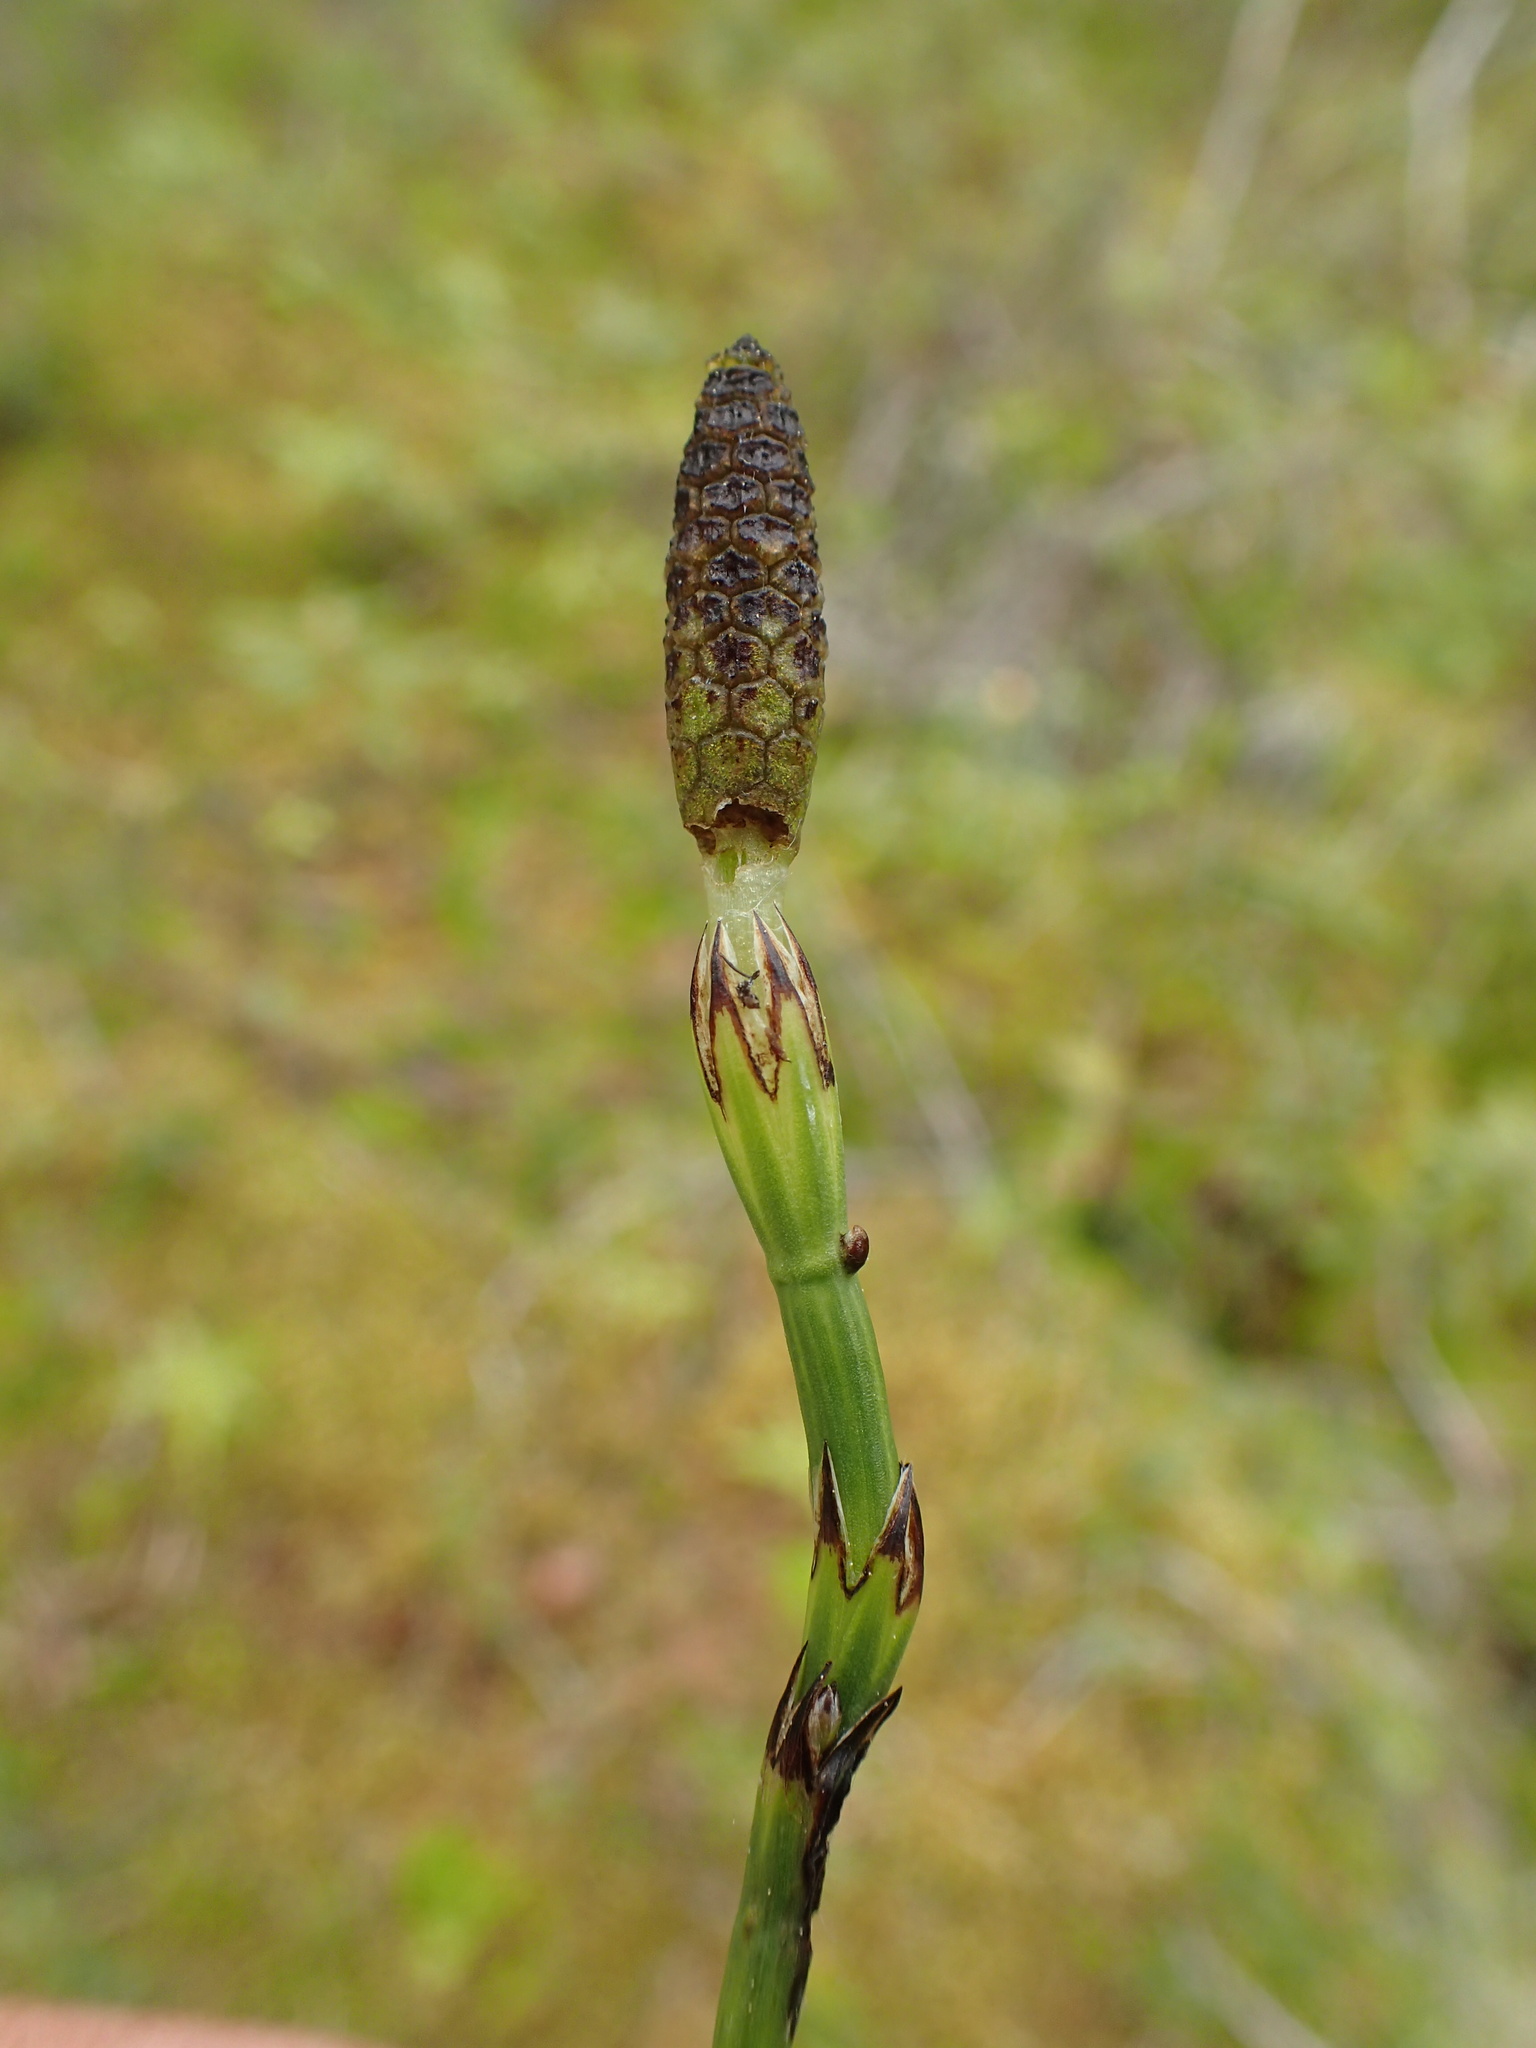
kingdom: Plantae
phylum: Tracheophyta
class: Polypodiopsida
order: Equisetales
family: Equisetaceae
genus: Equisetum
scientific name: Equisetum palustre
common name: Marsh horsetail
